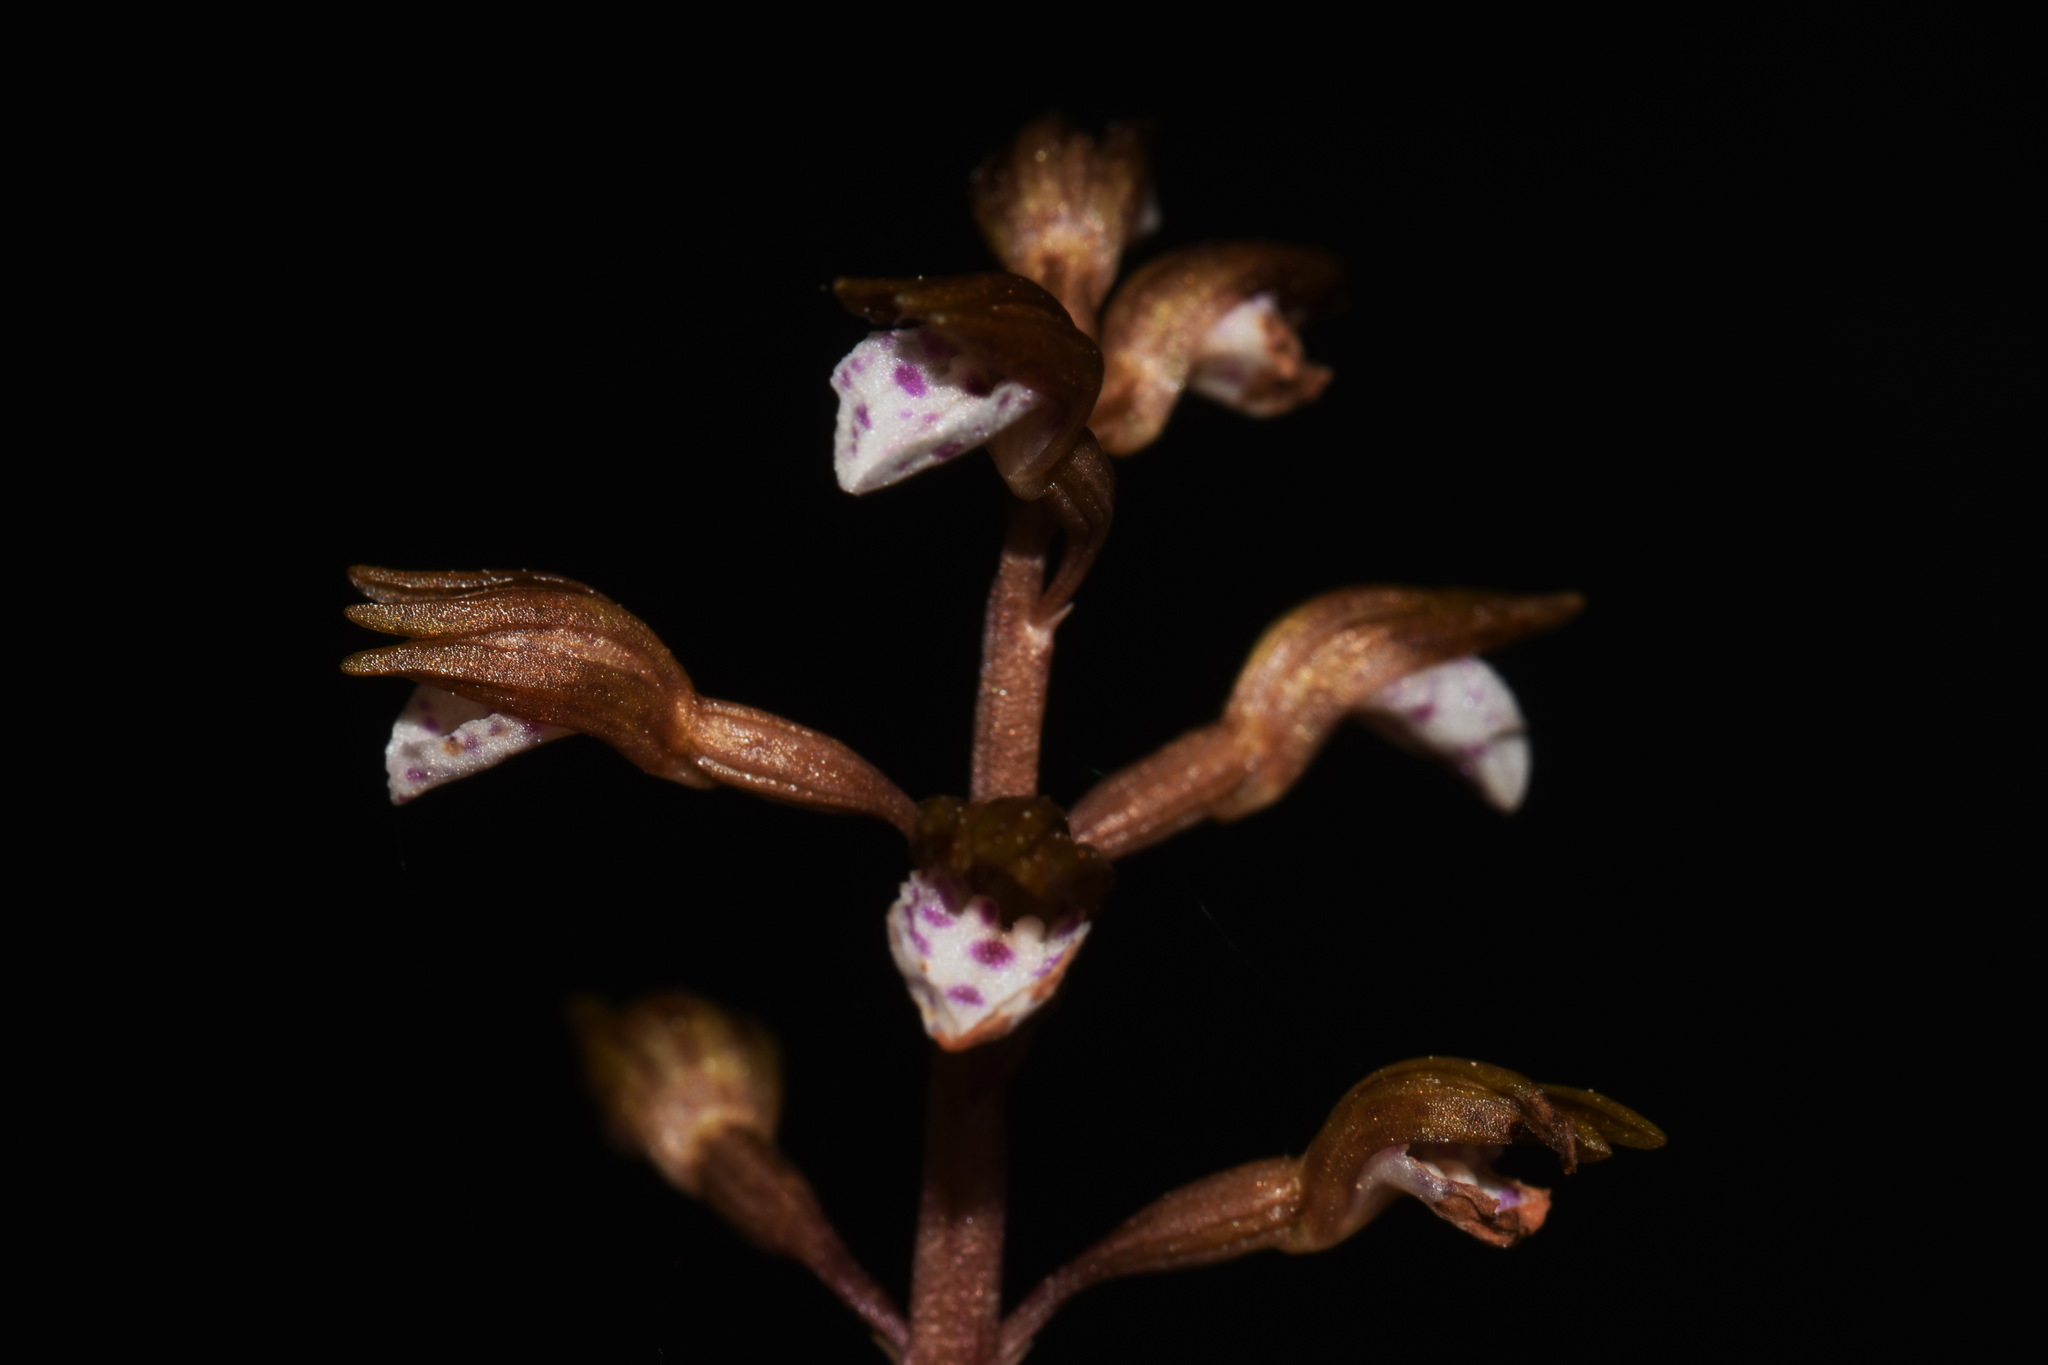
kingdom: Plantae
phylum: Tracheophyta
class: Liliopsida
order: Asparagales
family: Orchidaceae
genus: Corallorhiza
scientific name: Corallorhiza wisteriana
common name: Spring coralroot
